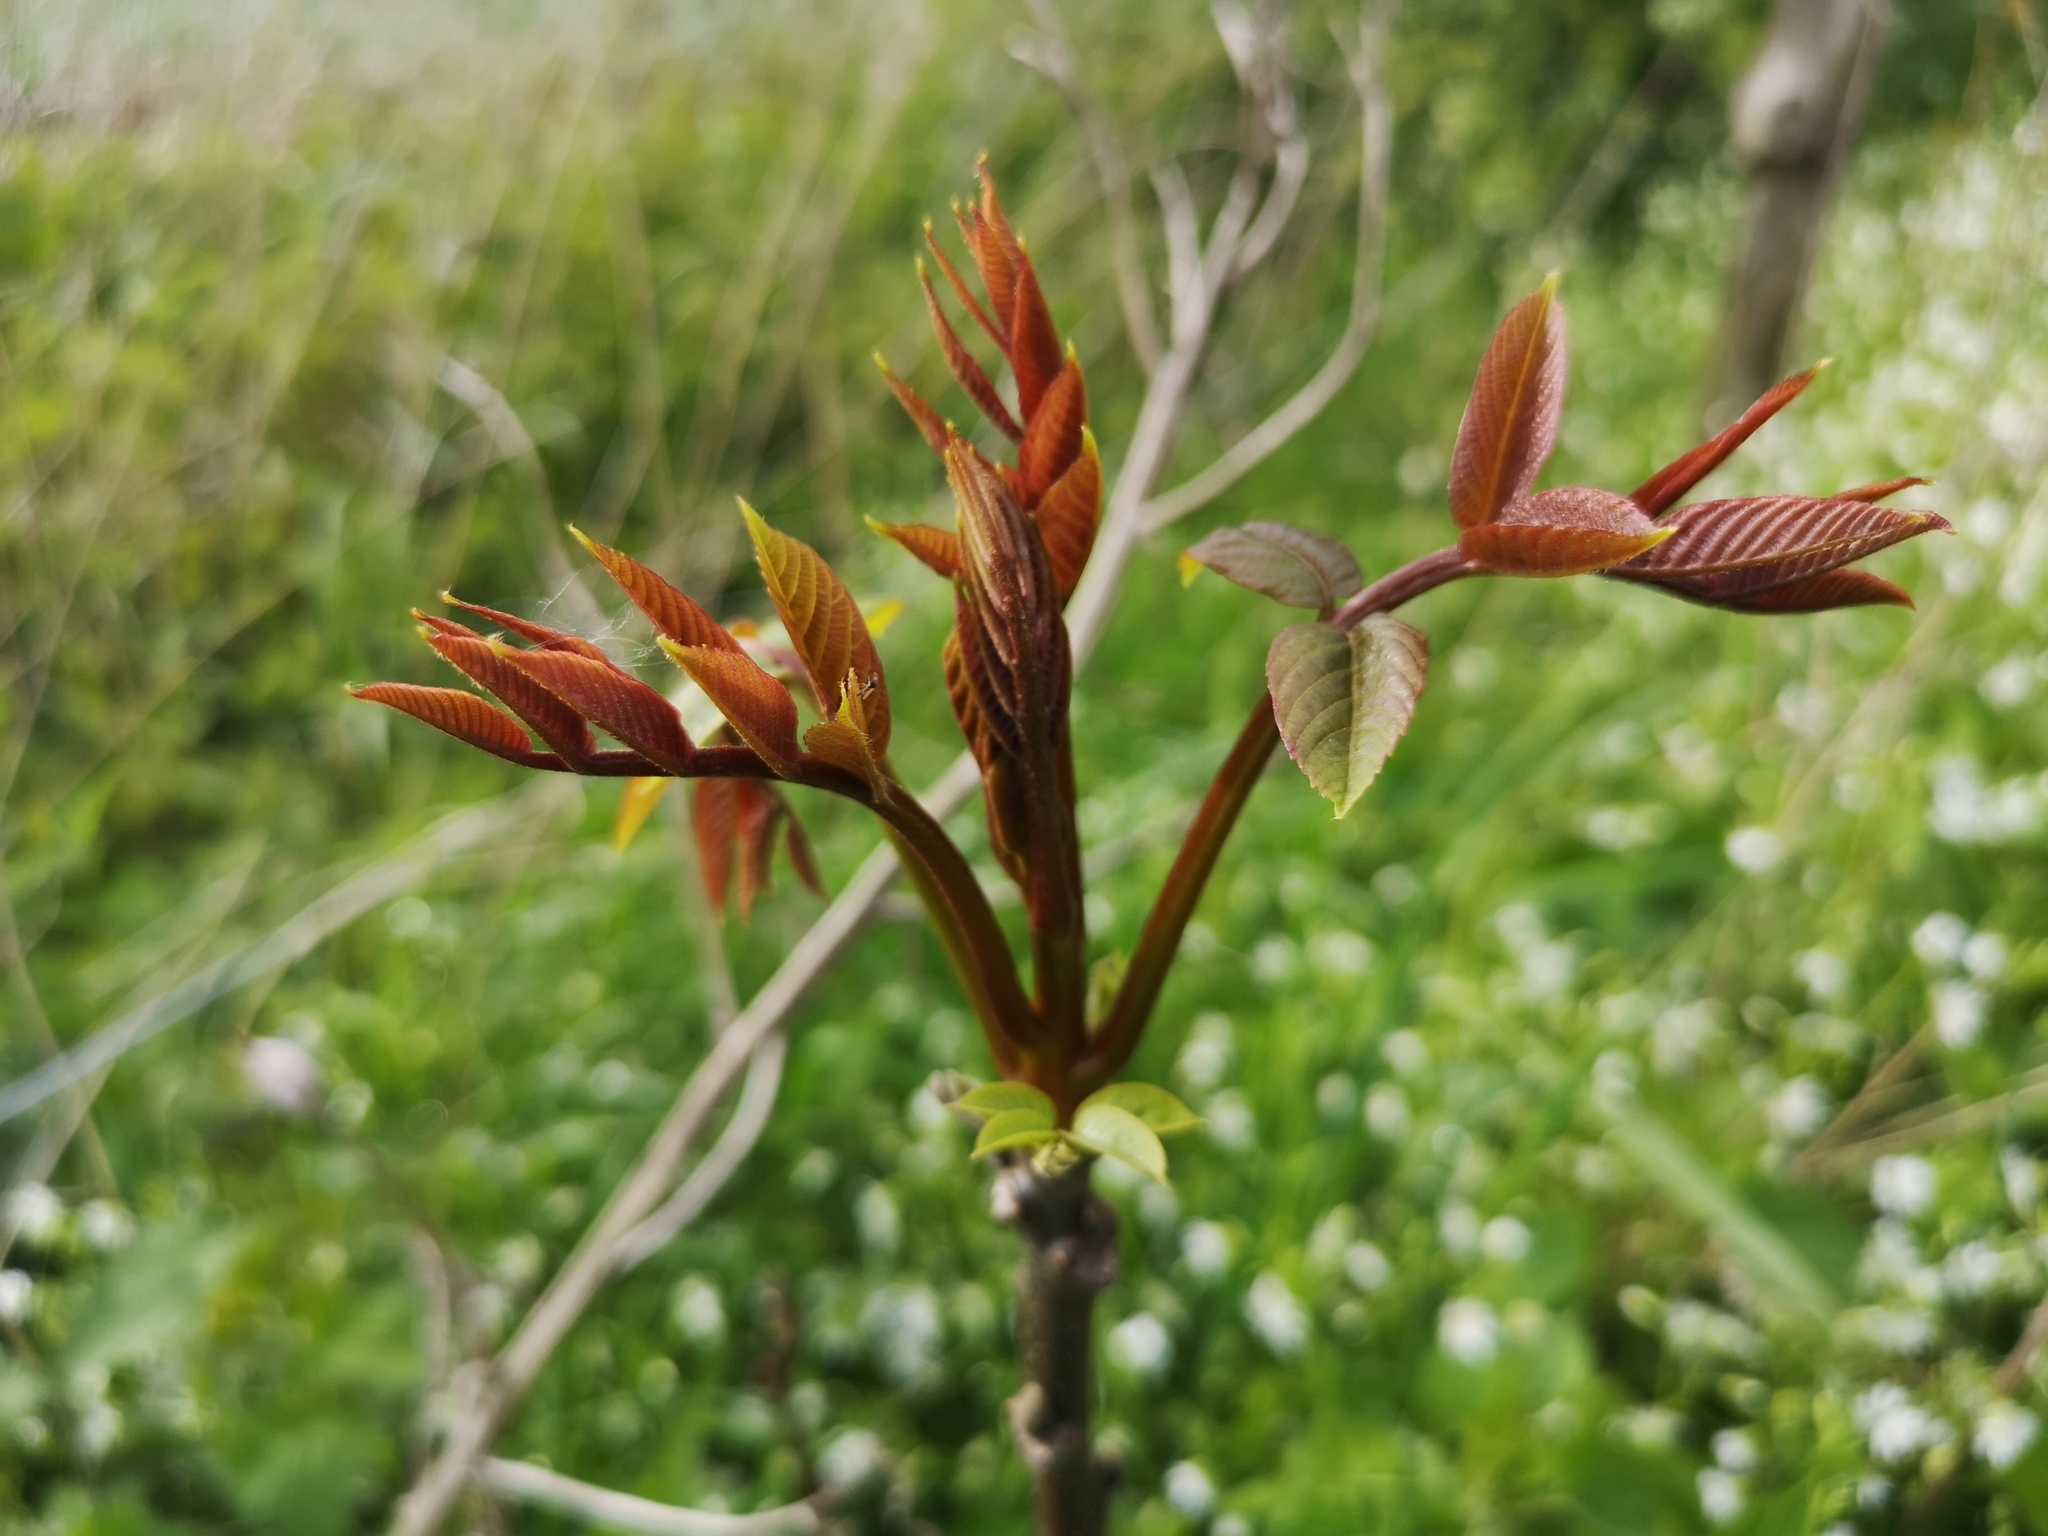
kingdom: Plantae
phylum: Tracheophyta
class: Magnoliopsida
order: Fagales
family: Juglandaceae
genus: Juglans
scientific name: Juglans regia
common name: Walnut
